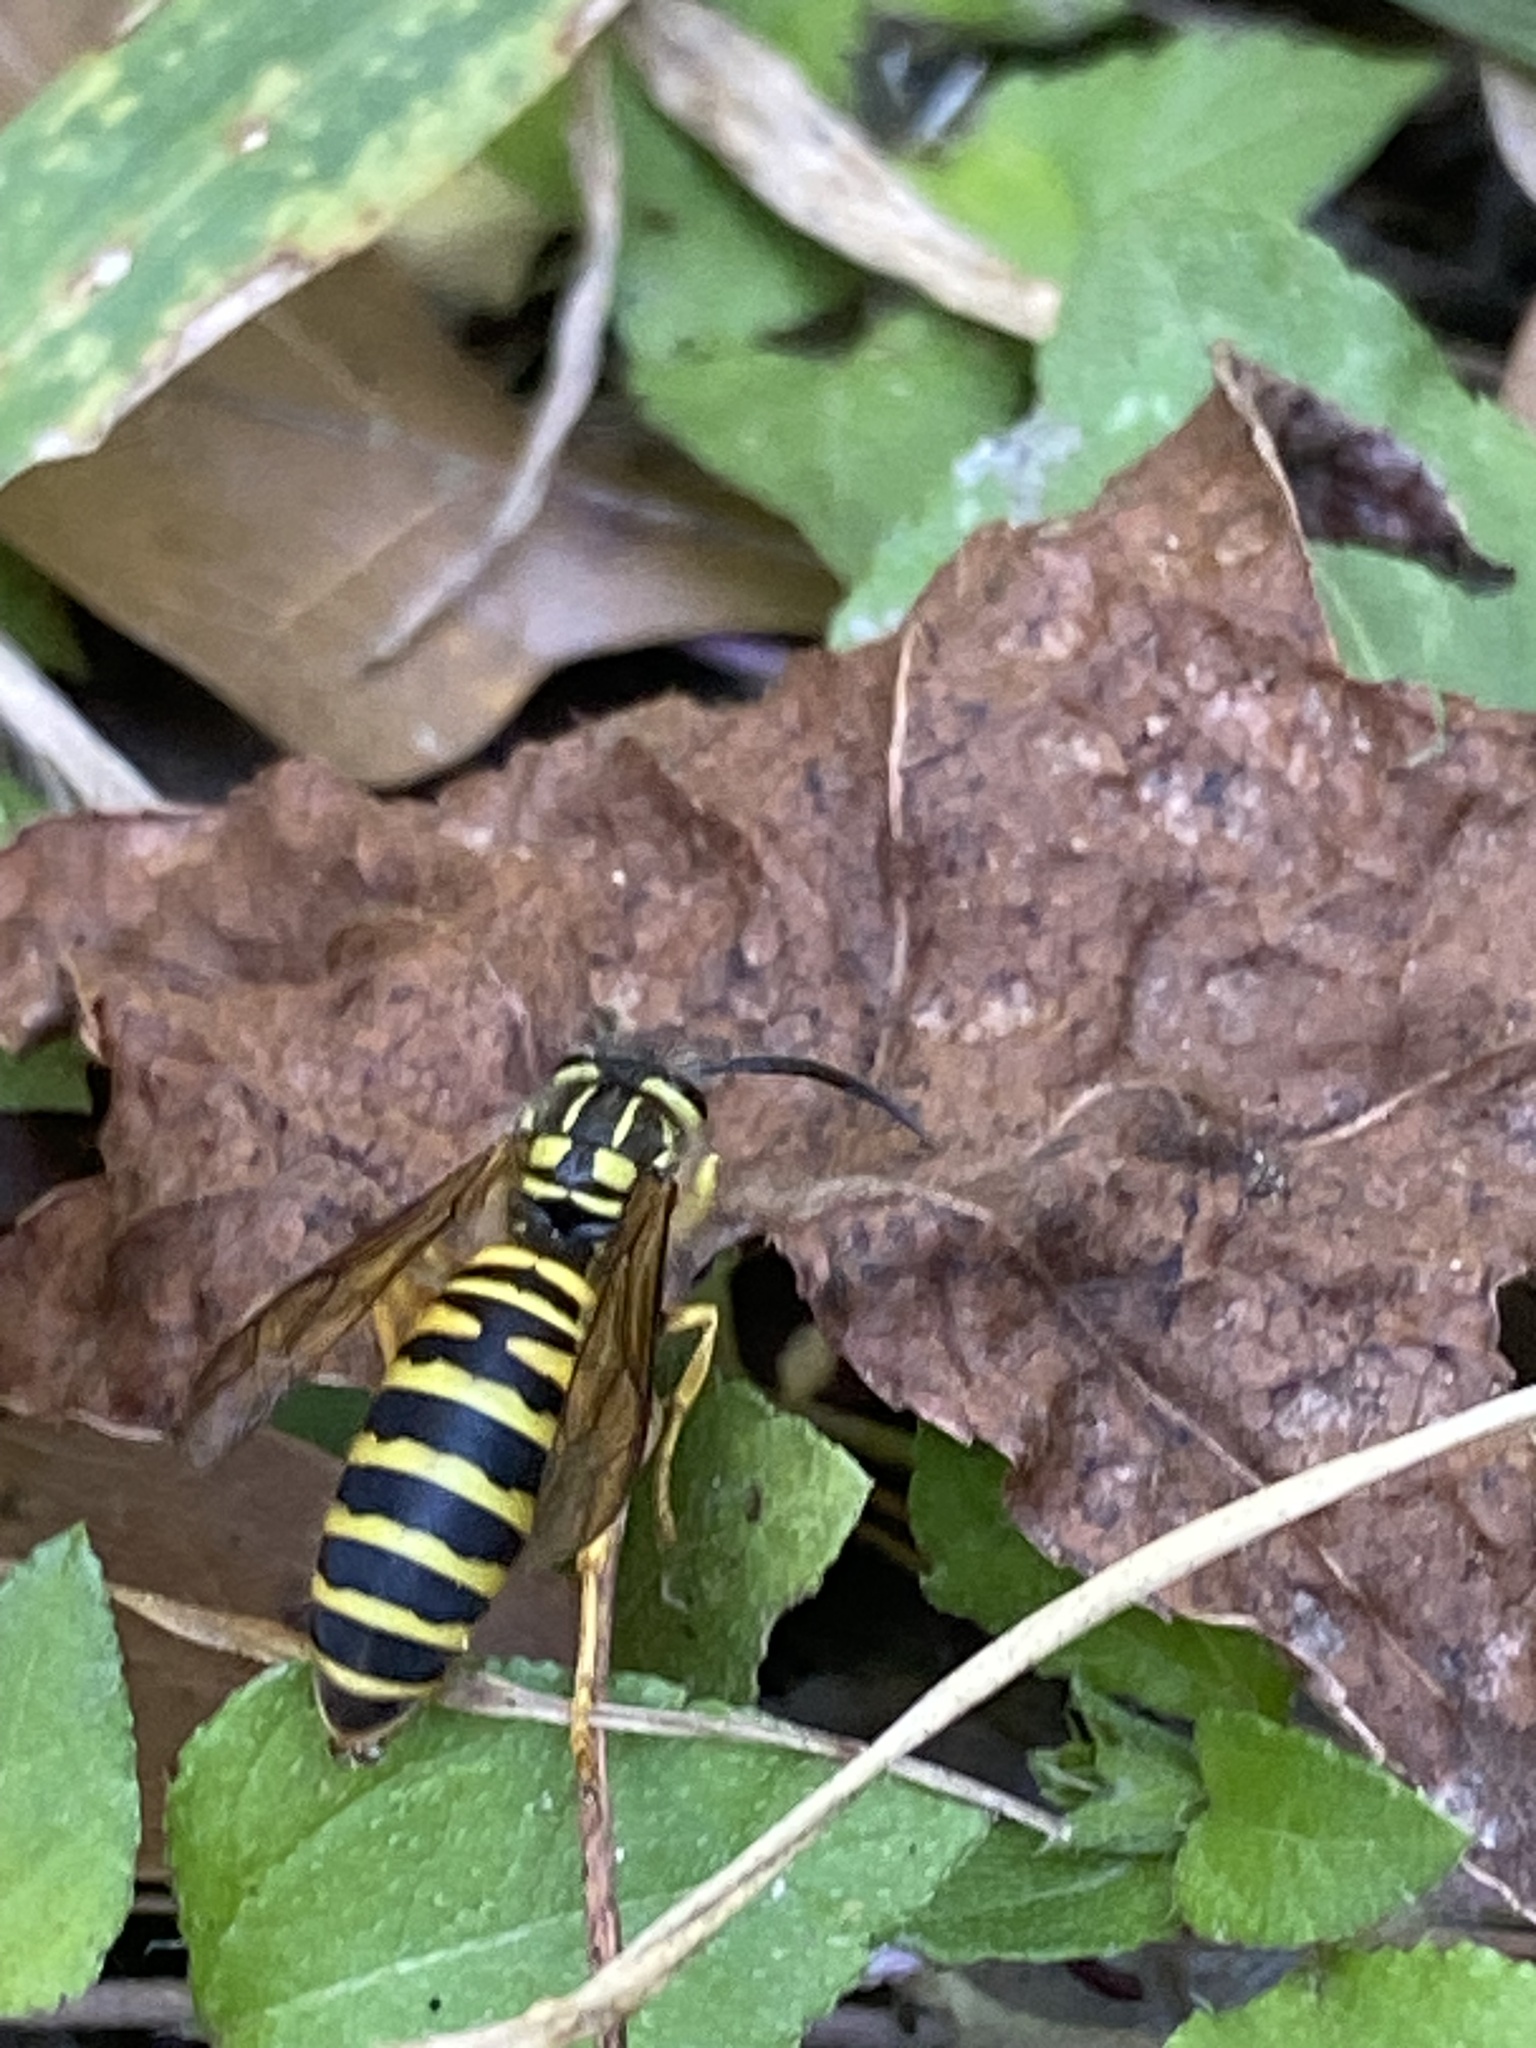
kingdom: Animalia
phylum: Arthropoda
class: Insecta
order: Hymenoptera
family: Vespidae
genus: Vespula
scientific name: Vespula squamosa
